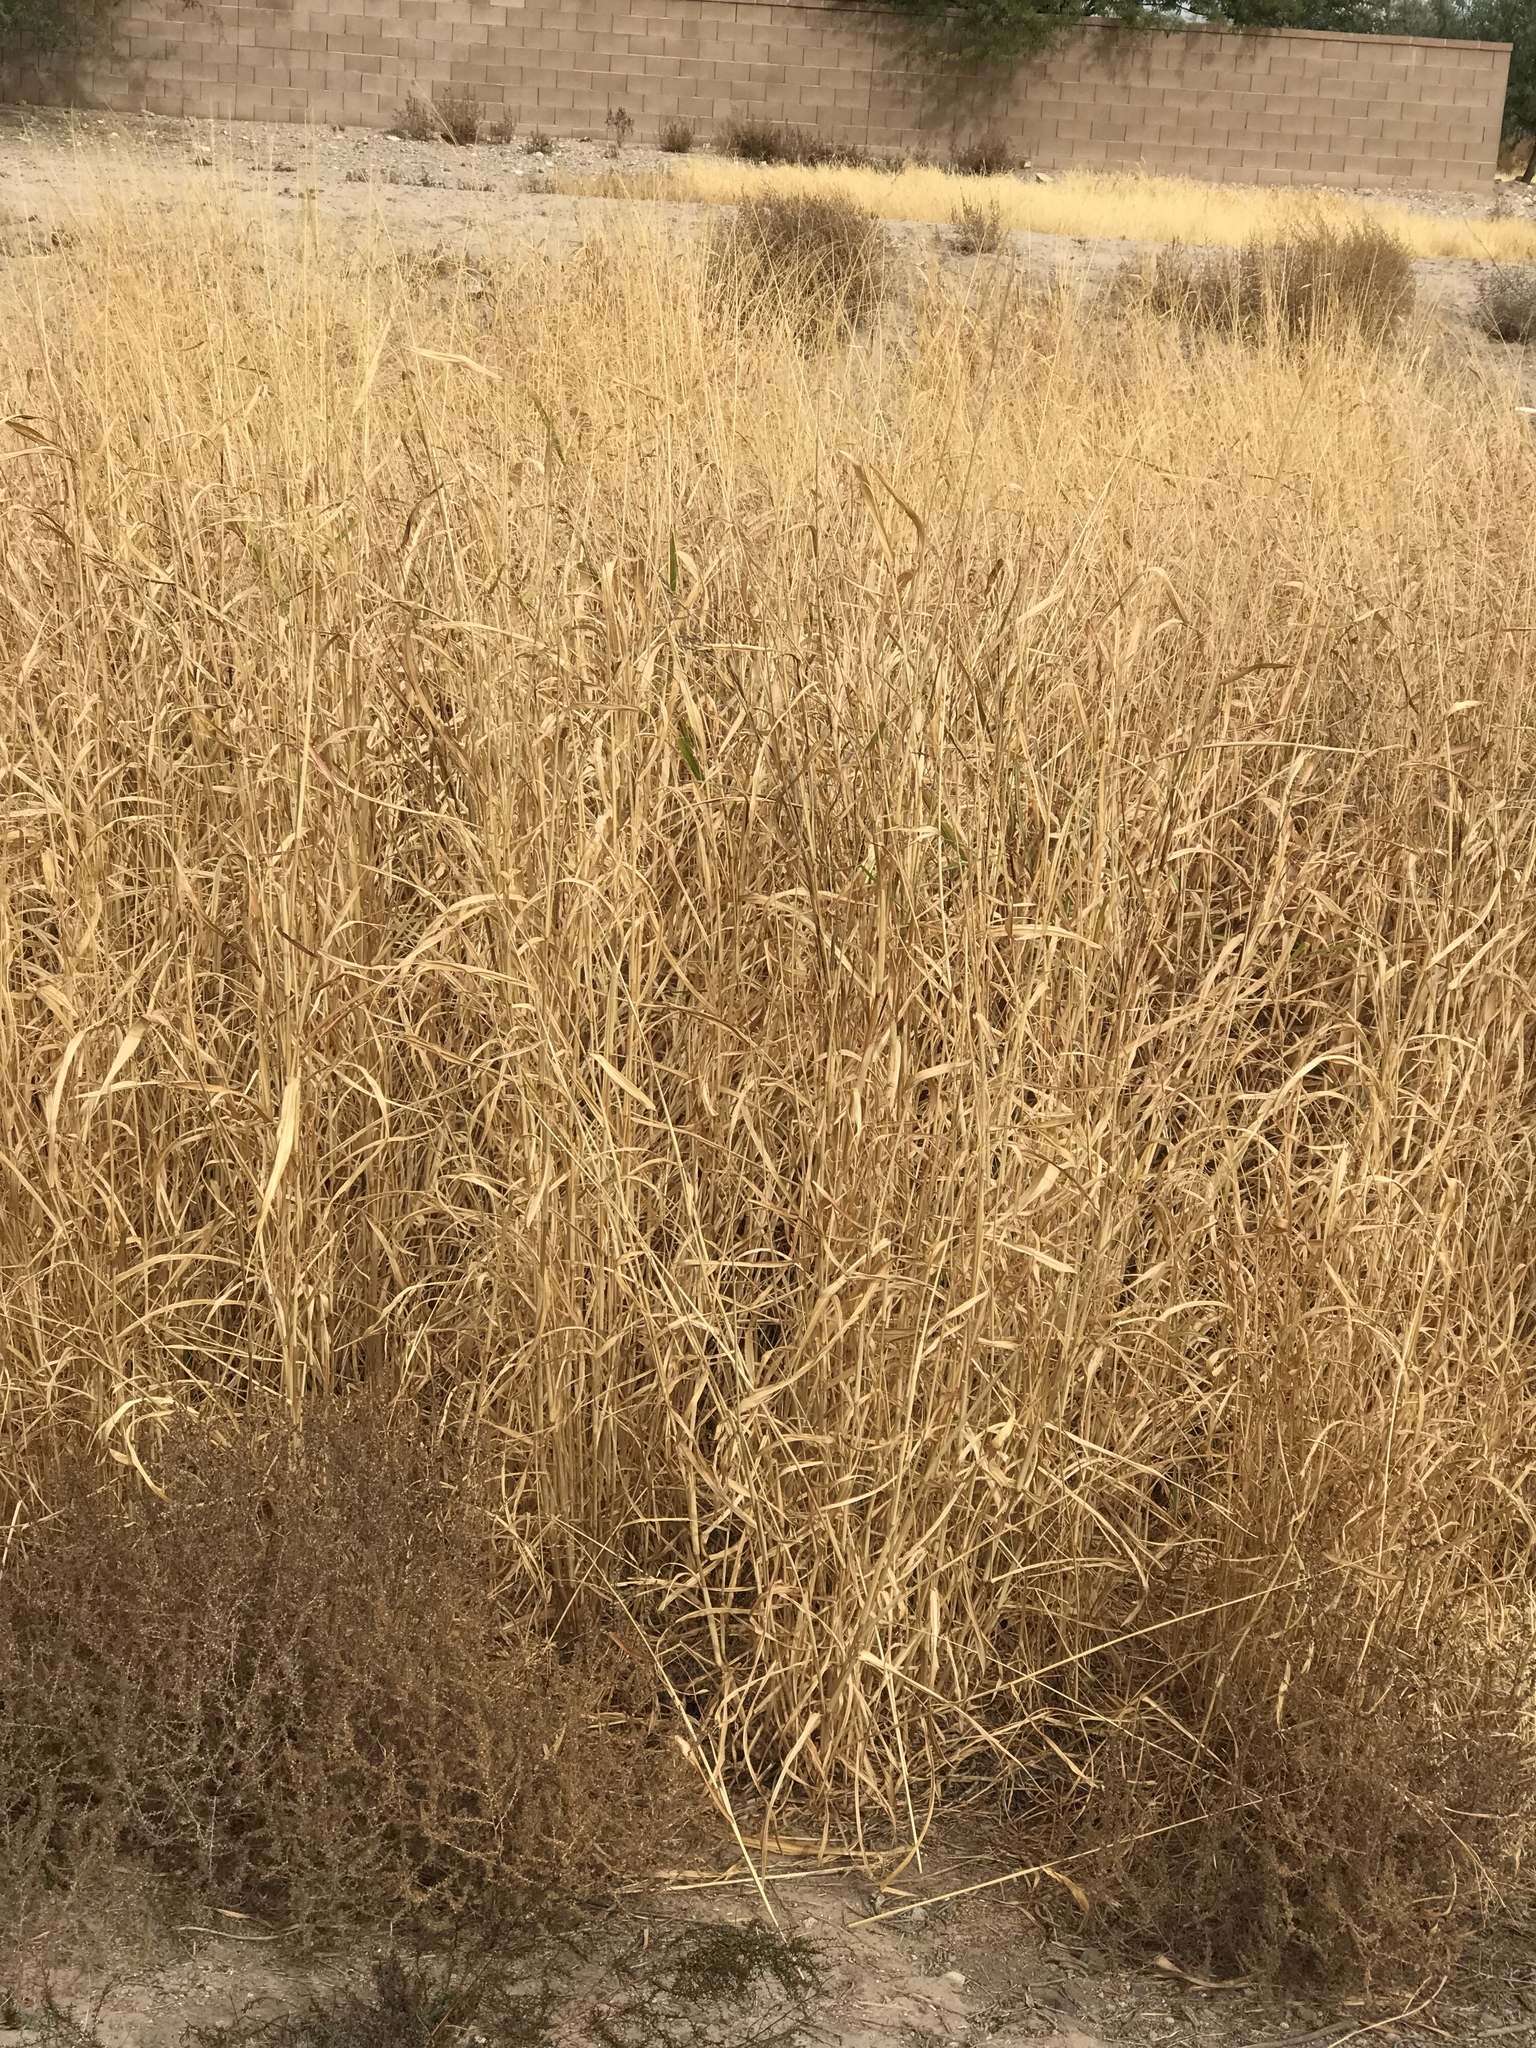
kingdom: Plantae
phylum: Tracheophyta
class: Liliopsida
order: Poales
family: Poaceae
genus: Sorghum
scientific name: Sorghum halepense
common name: Johnson-grass
